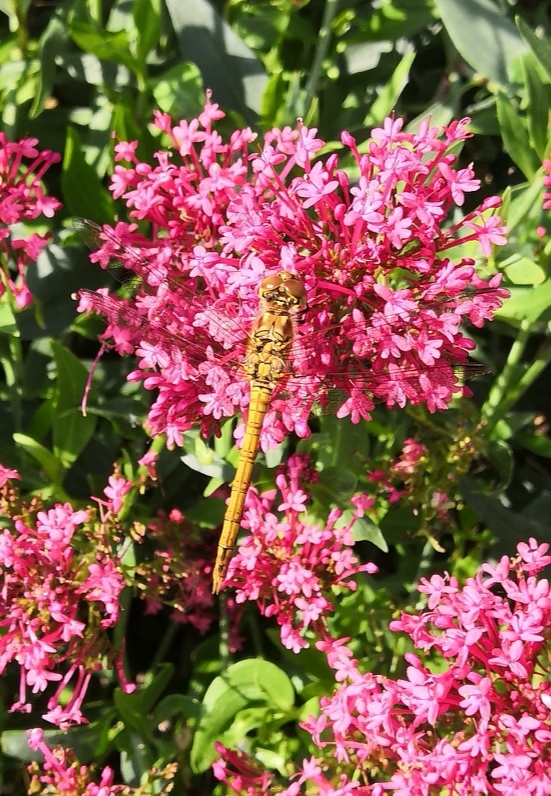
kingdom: Animalia
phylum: Arthropoda
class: Insecta
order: Odonata
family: Libellulidae
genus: Sympetrum
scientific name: Sympetrum striolatum
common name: Common darter
